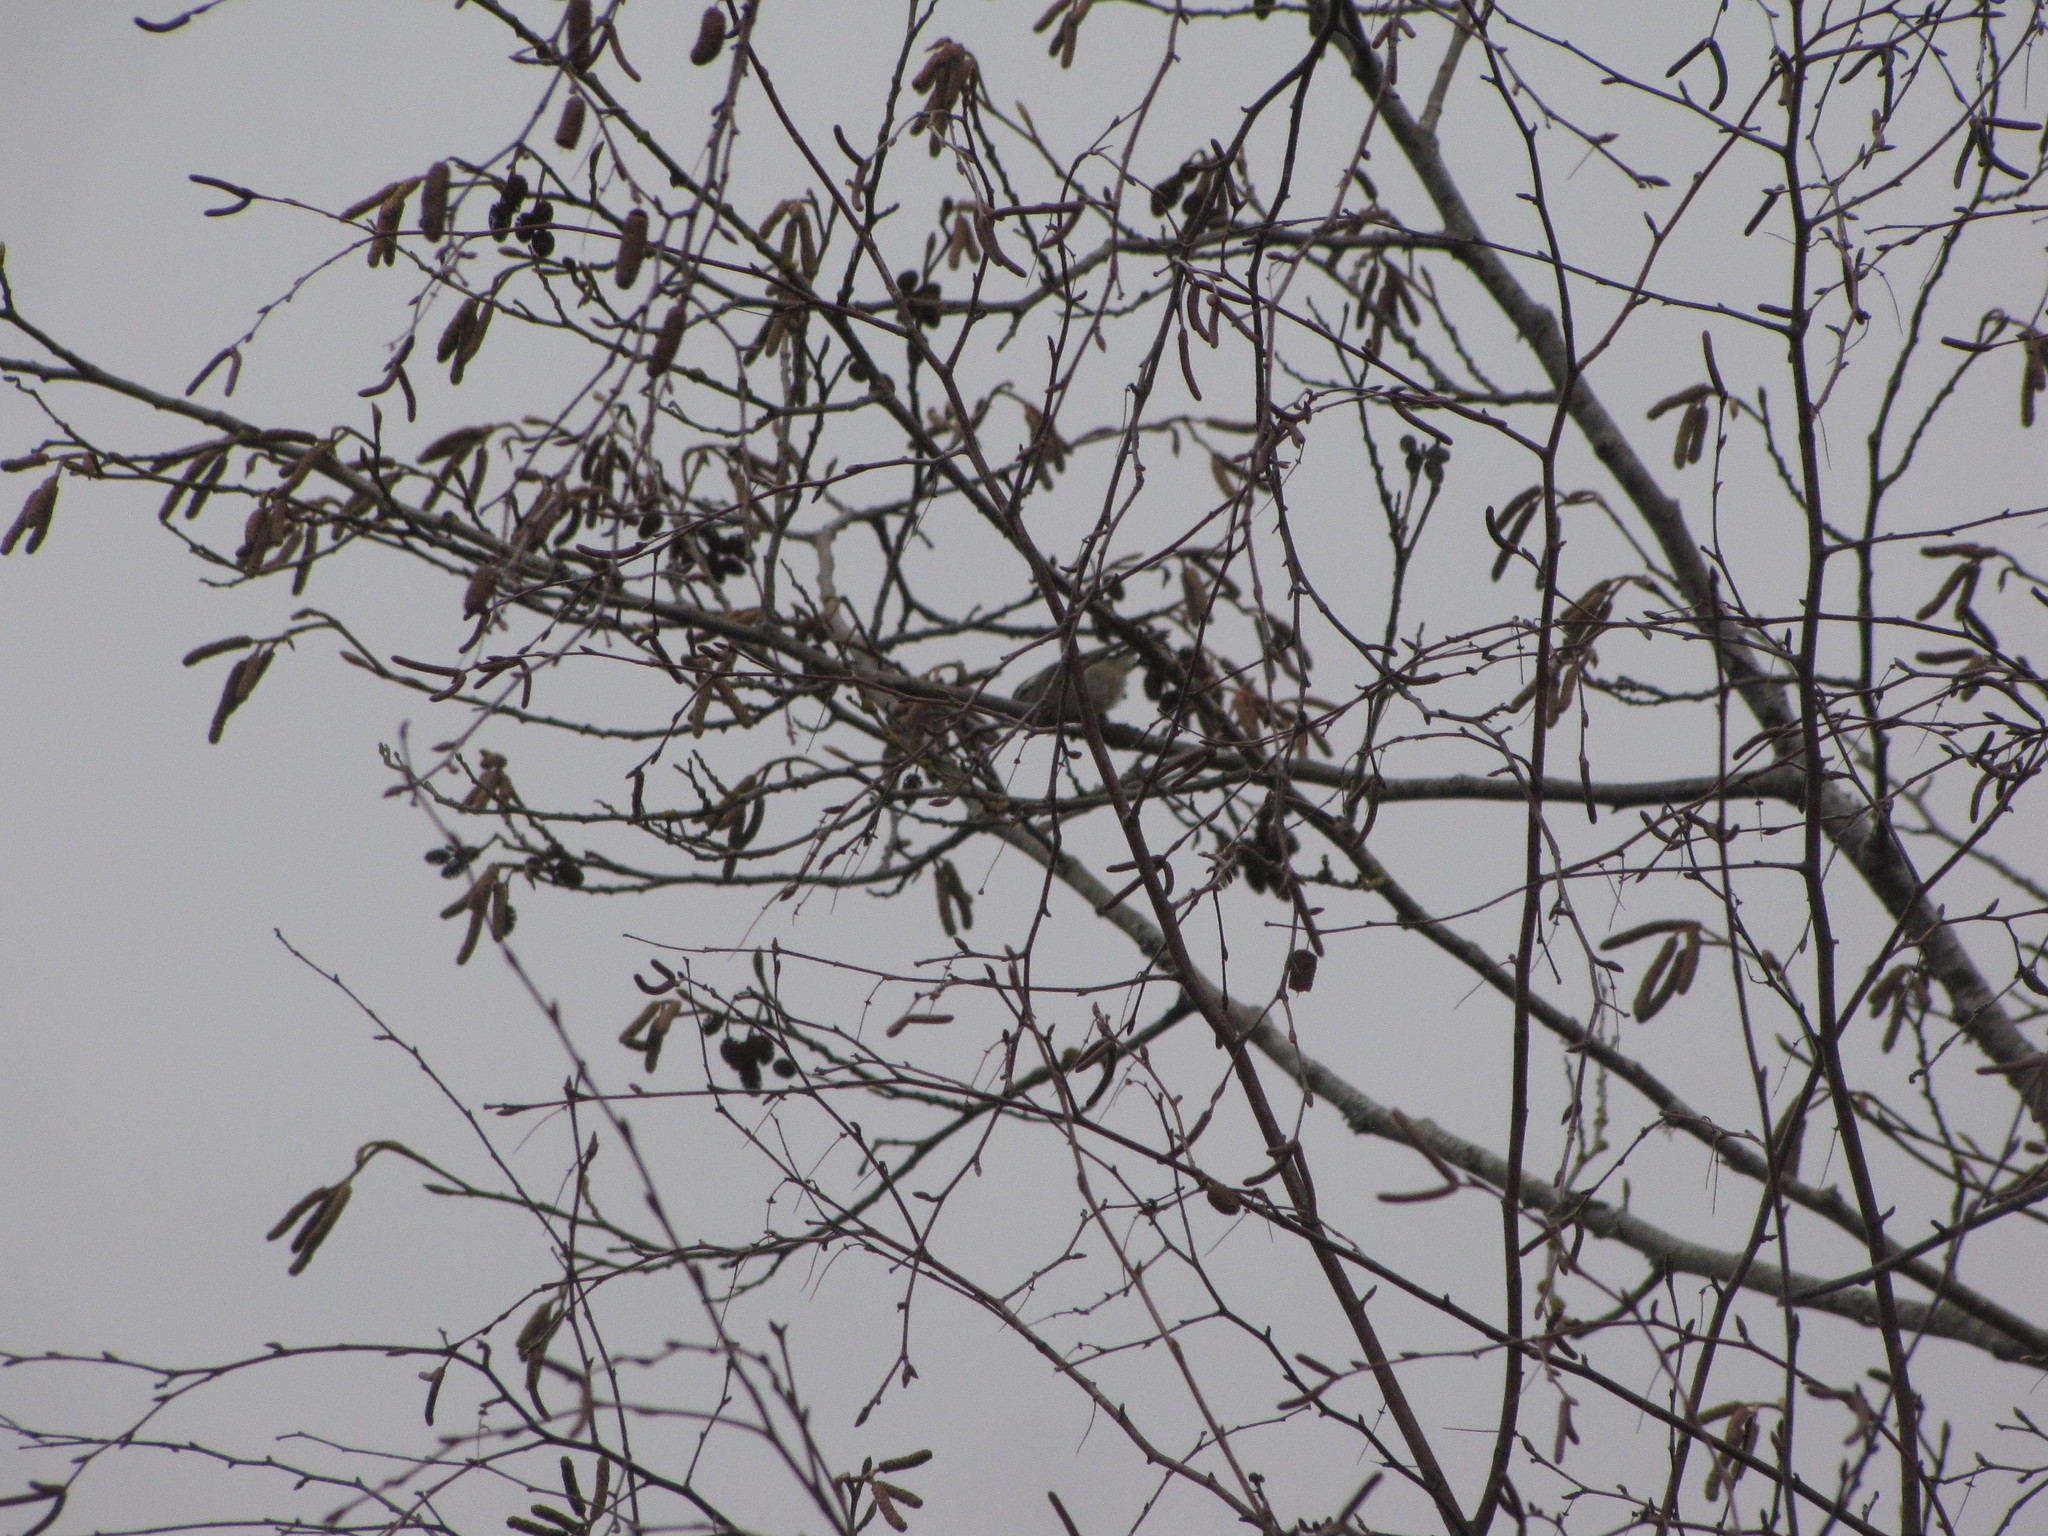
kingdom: Animalia
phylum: Chordata
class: Aves
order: Passeriformes
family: Regulidae
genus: Regulus
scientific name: Regulus satrapa
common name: Golden-crowned kinglet
